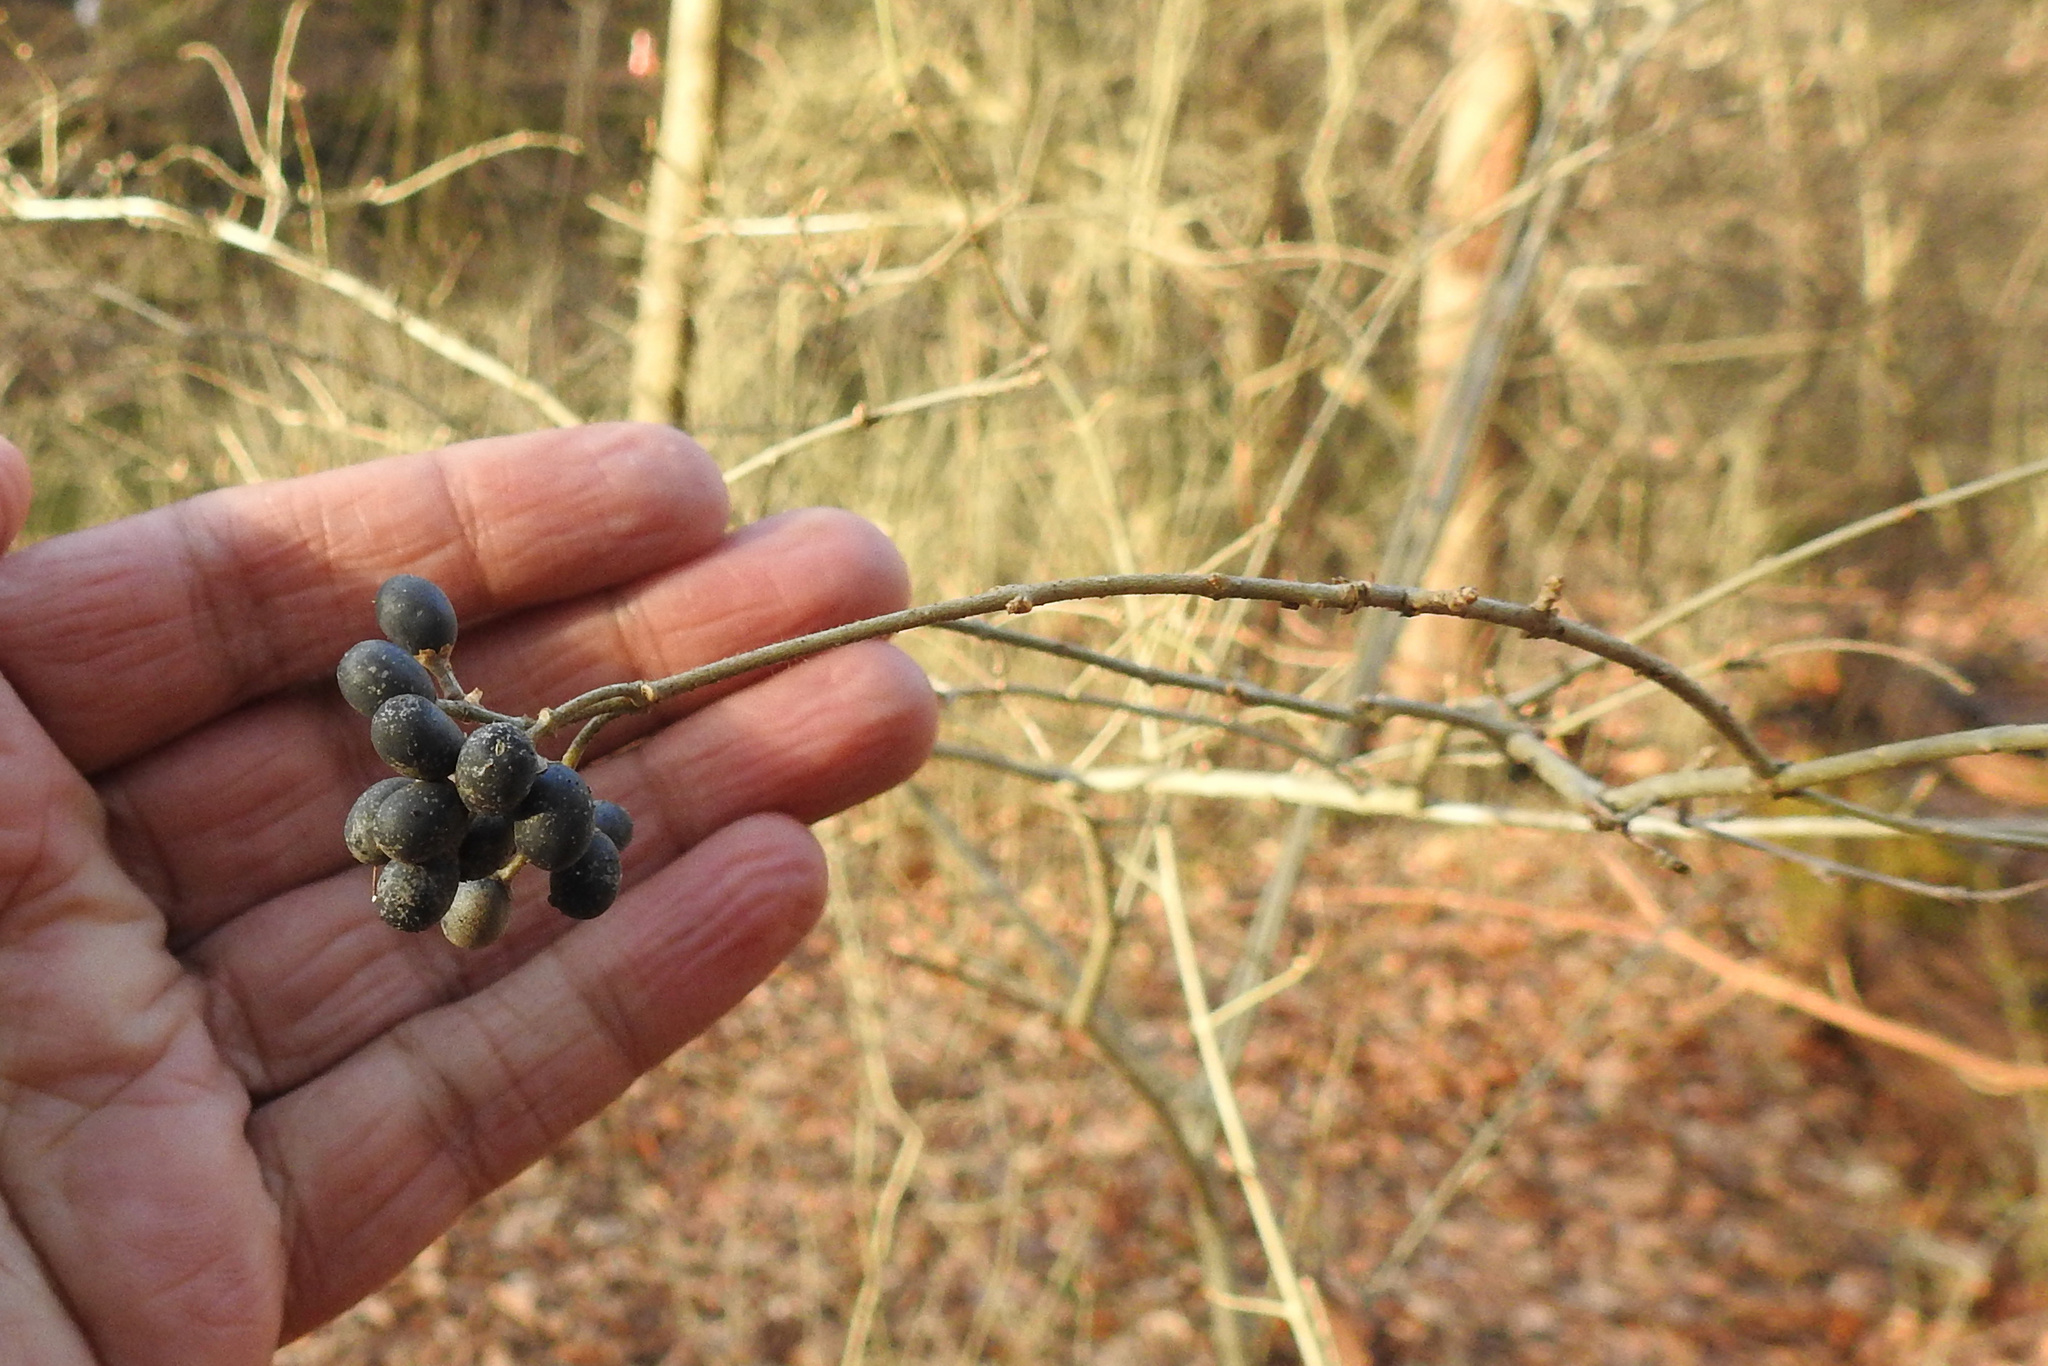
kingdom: Plantae
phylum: Tracheophyta
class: Magnoliopsida
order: Lamiales
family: Oleaceae
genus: Ligustrum
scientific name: Ligustrum obtusifolium
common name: Border privet
